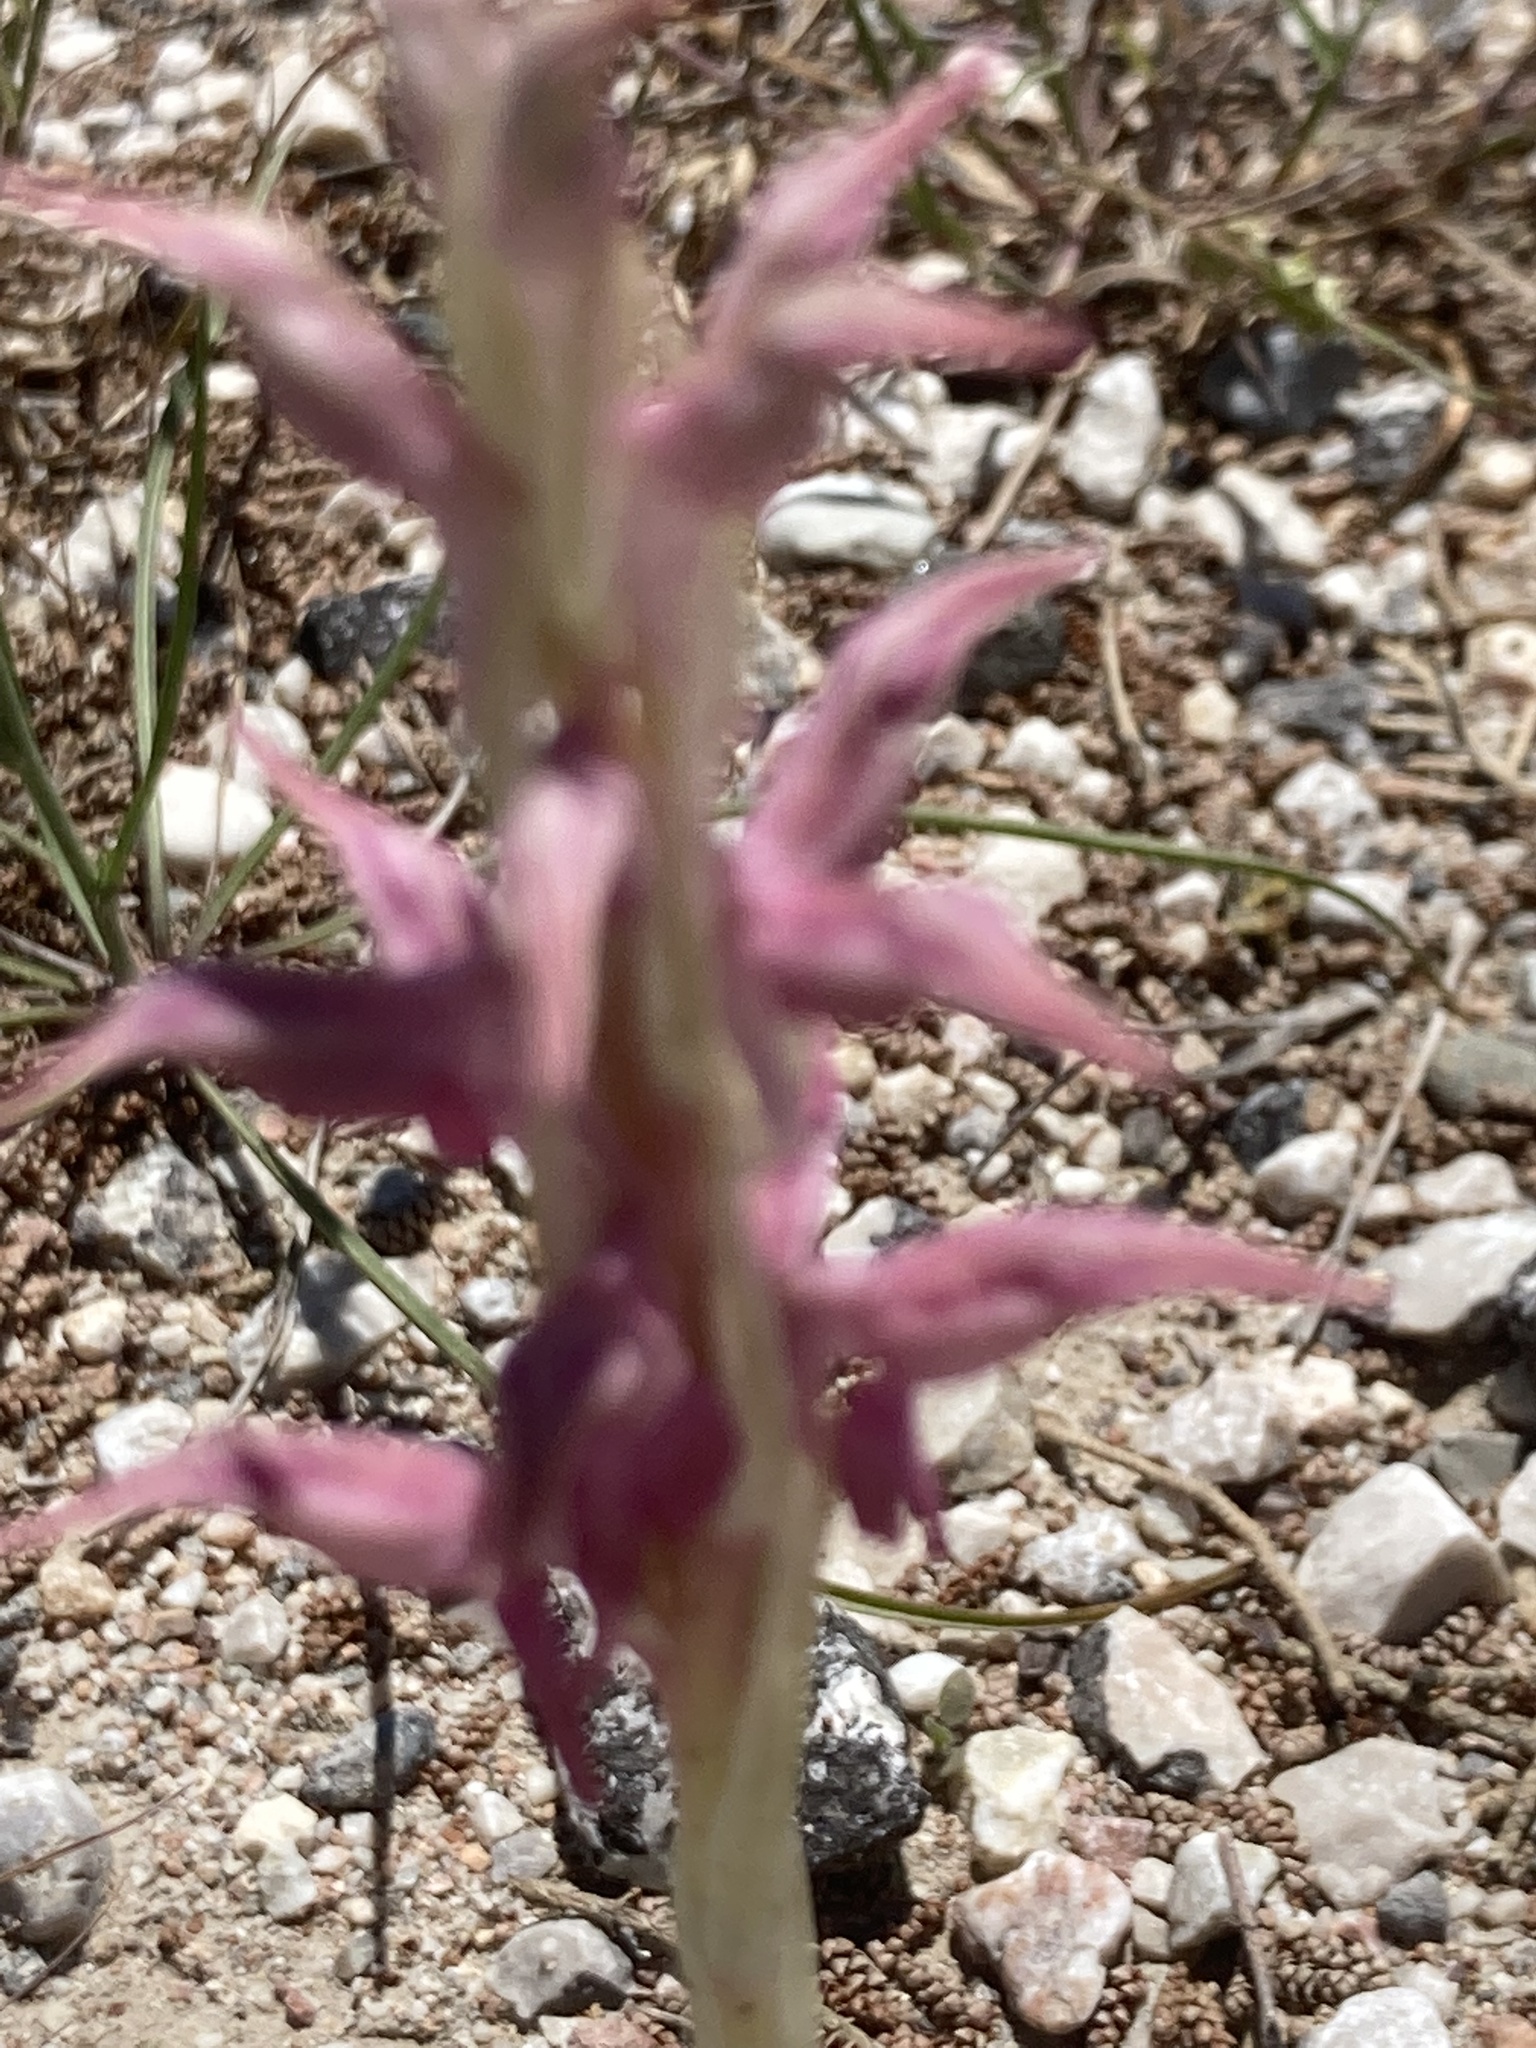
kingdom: Plantae
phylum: Tracheophyta
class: Liliopsida
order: Asparagales
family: Orchidaceae
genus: Anacamptis
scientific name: Anacamptis sancta
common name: Holy orchid
